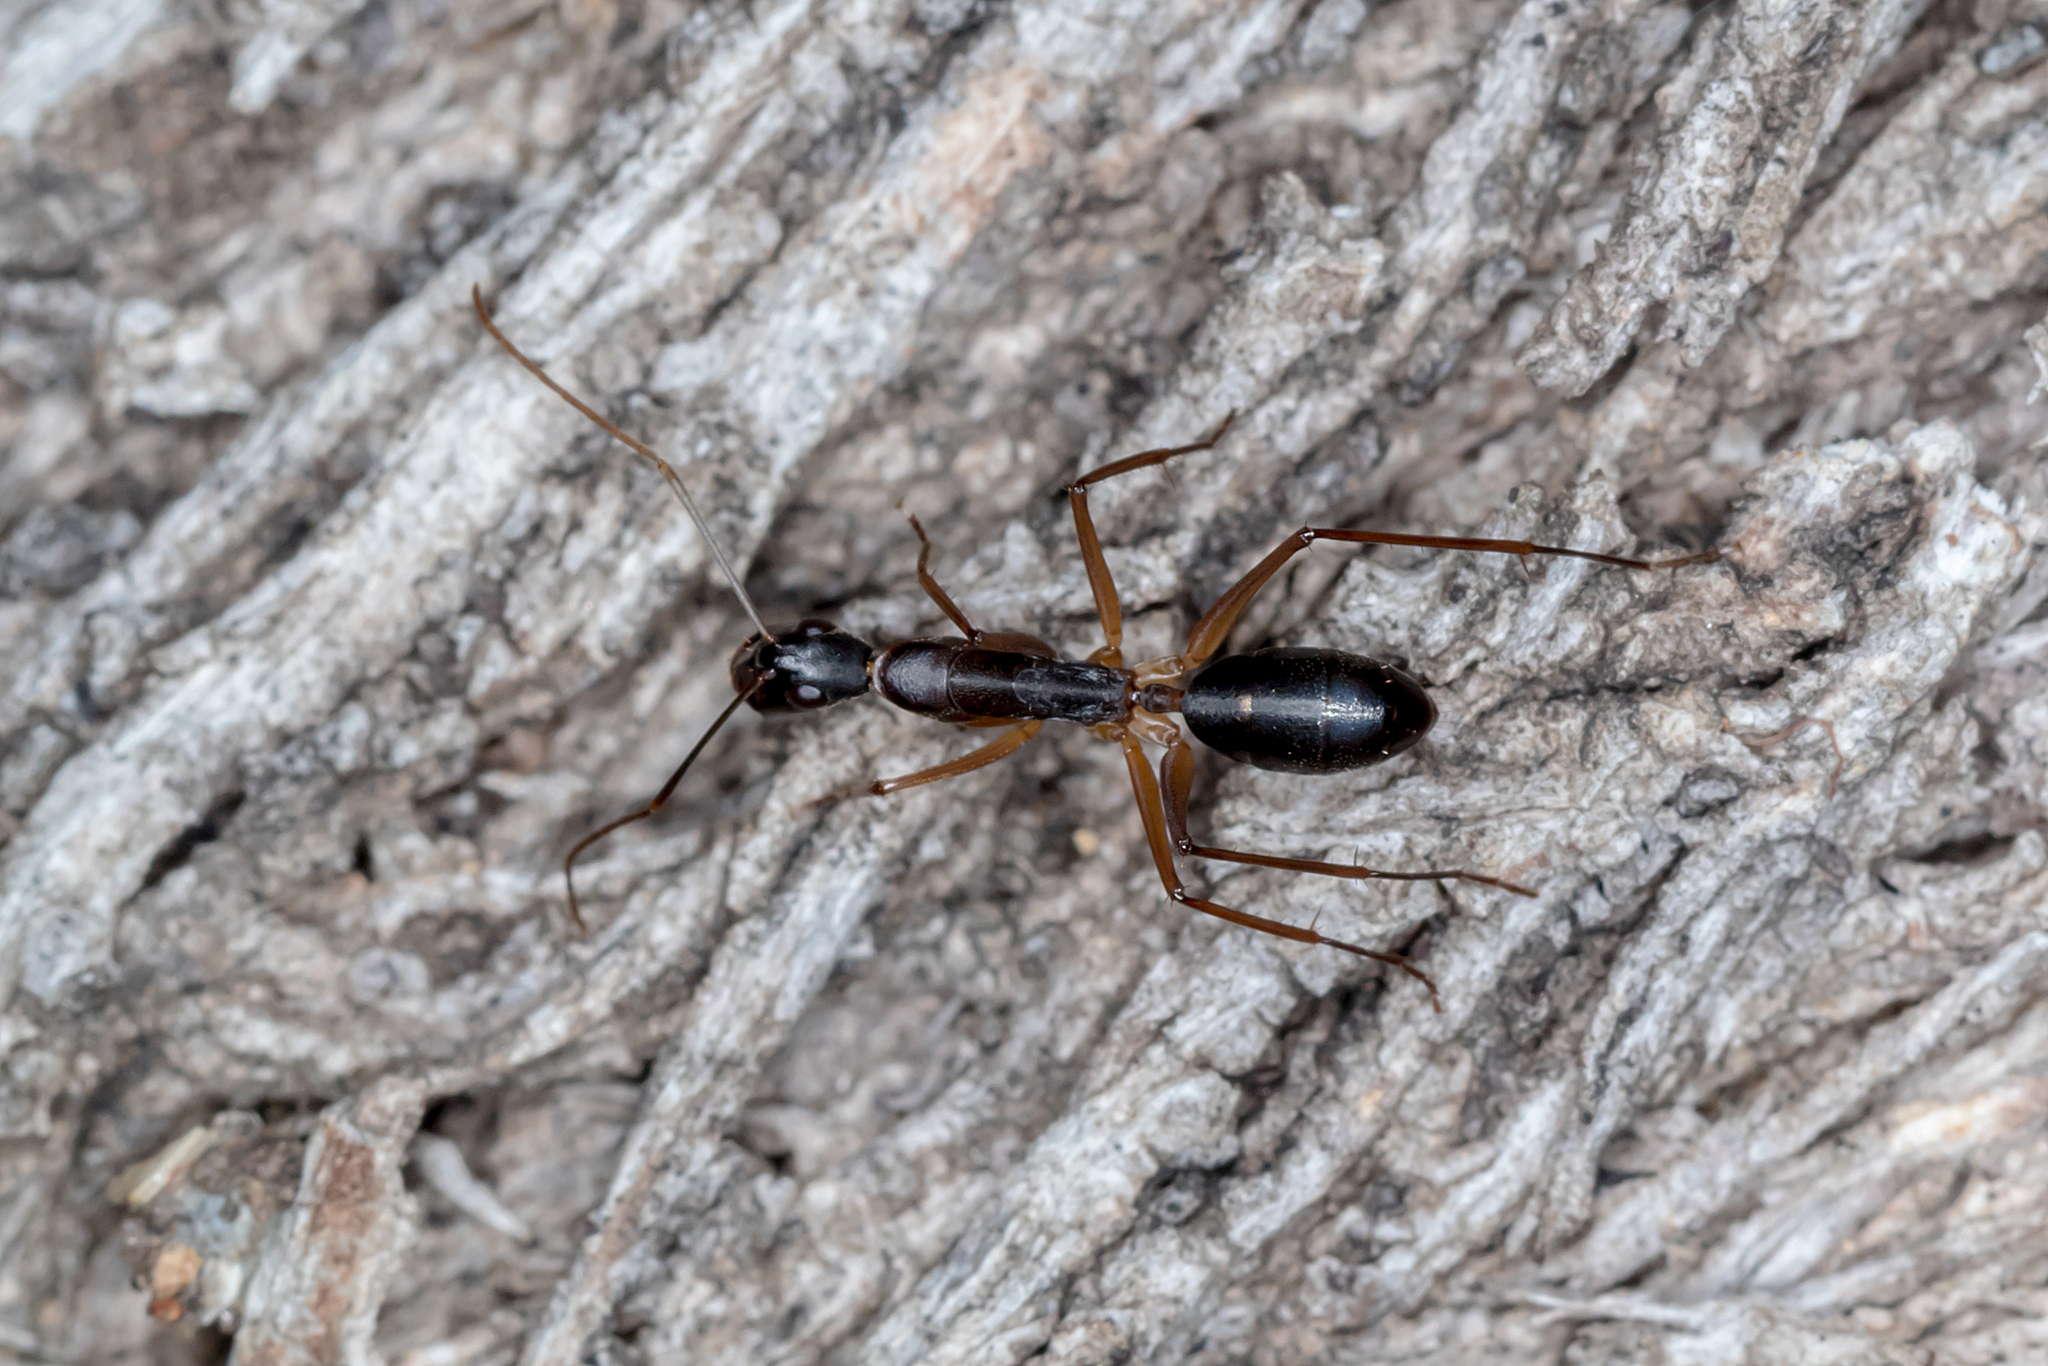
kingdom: Animalia
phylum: Arthropoda
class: Insecta
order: Hymenoptera
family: Formicidae
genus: Camponotus
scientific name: Camponotus subnitidus
